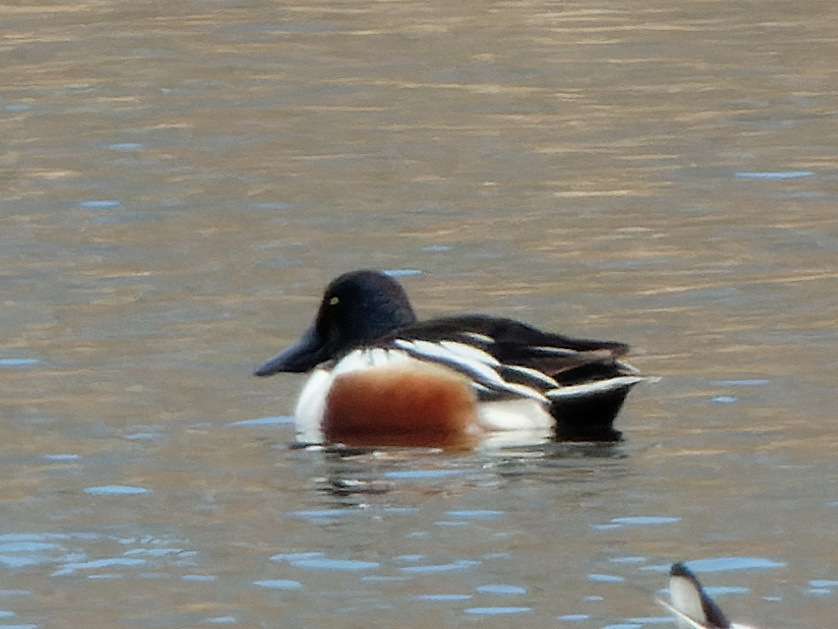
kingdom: Animalia
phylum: Chordata
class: Aves
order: Anseriformes
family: Anatidae
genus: Spatula
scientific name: Spatula clypeata
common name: Northern shoveler
